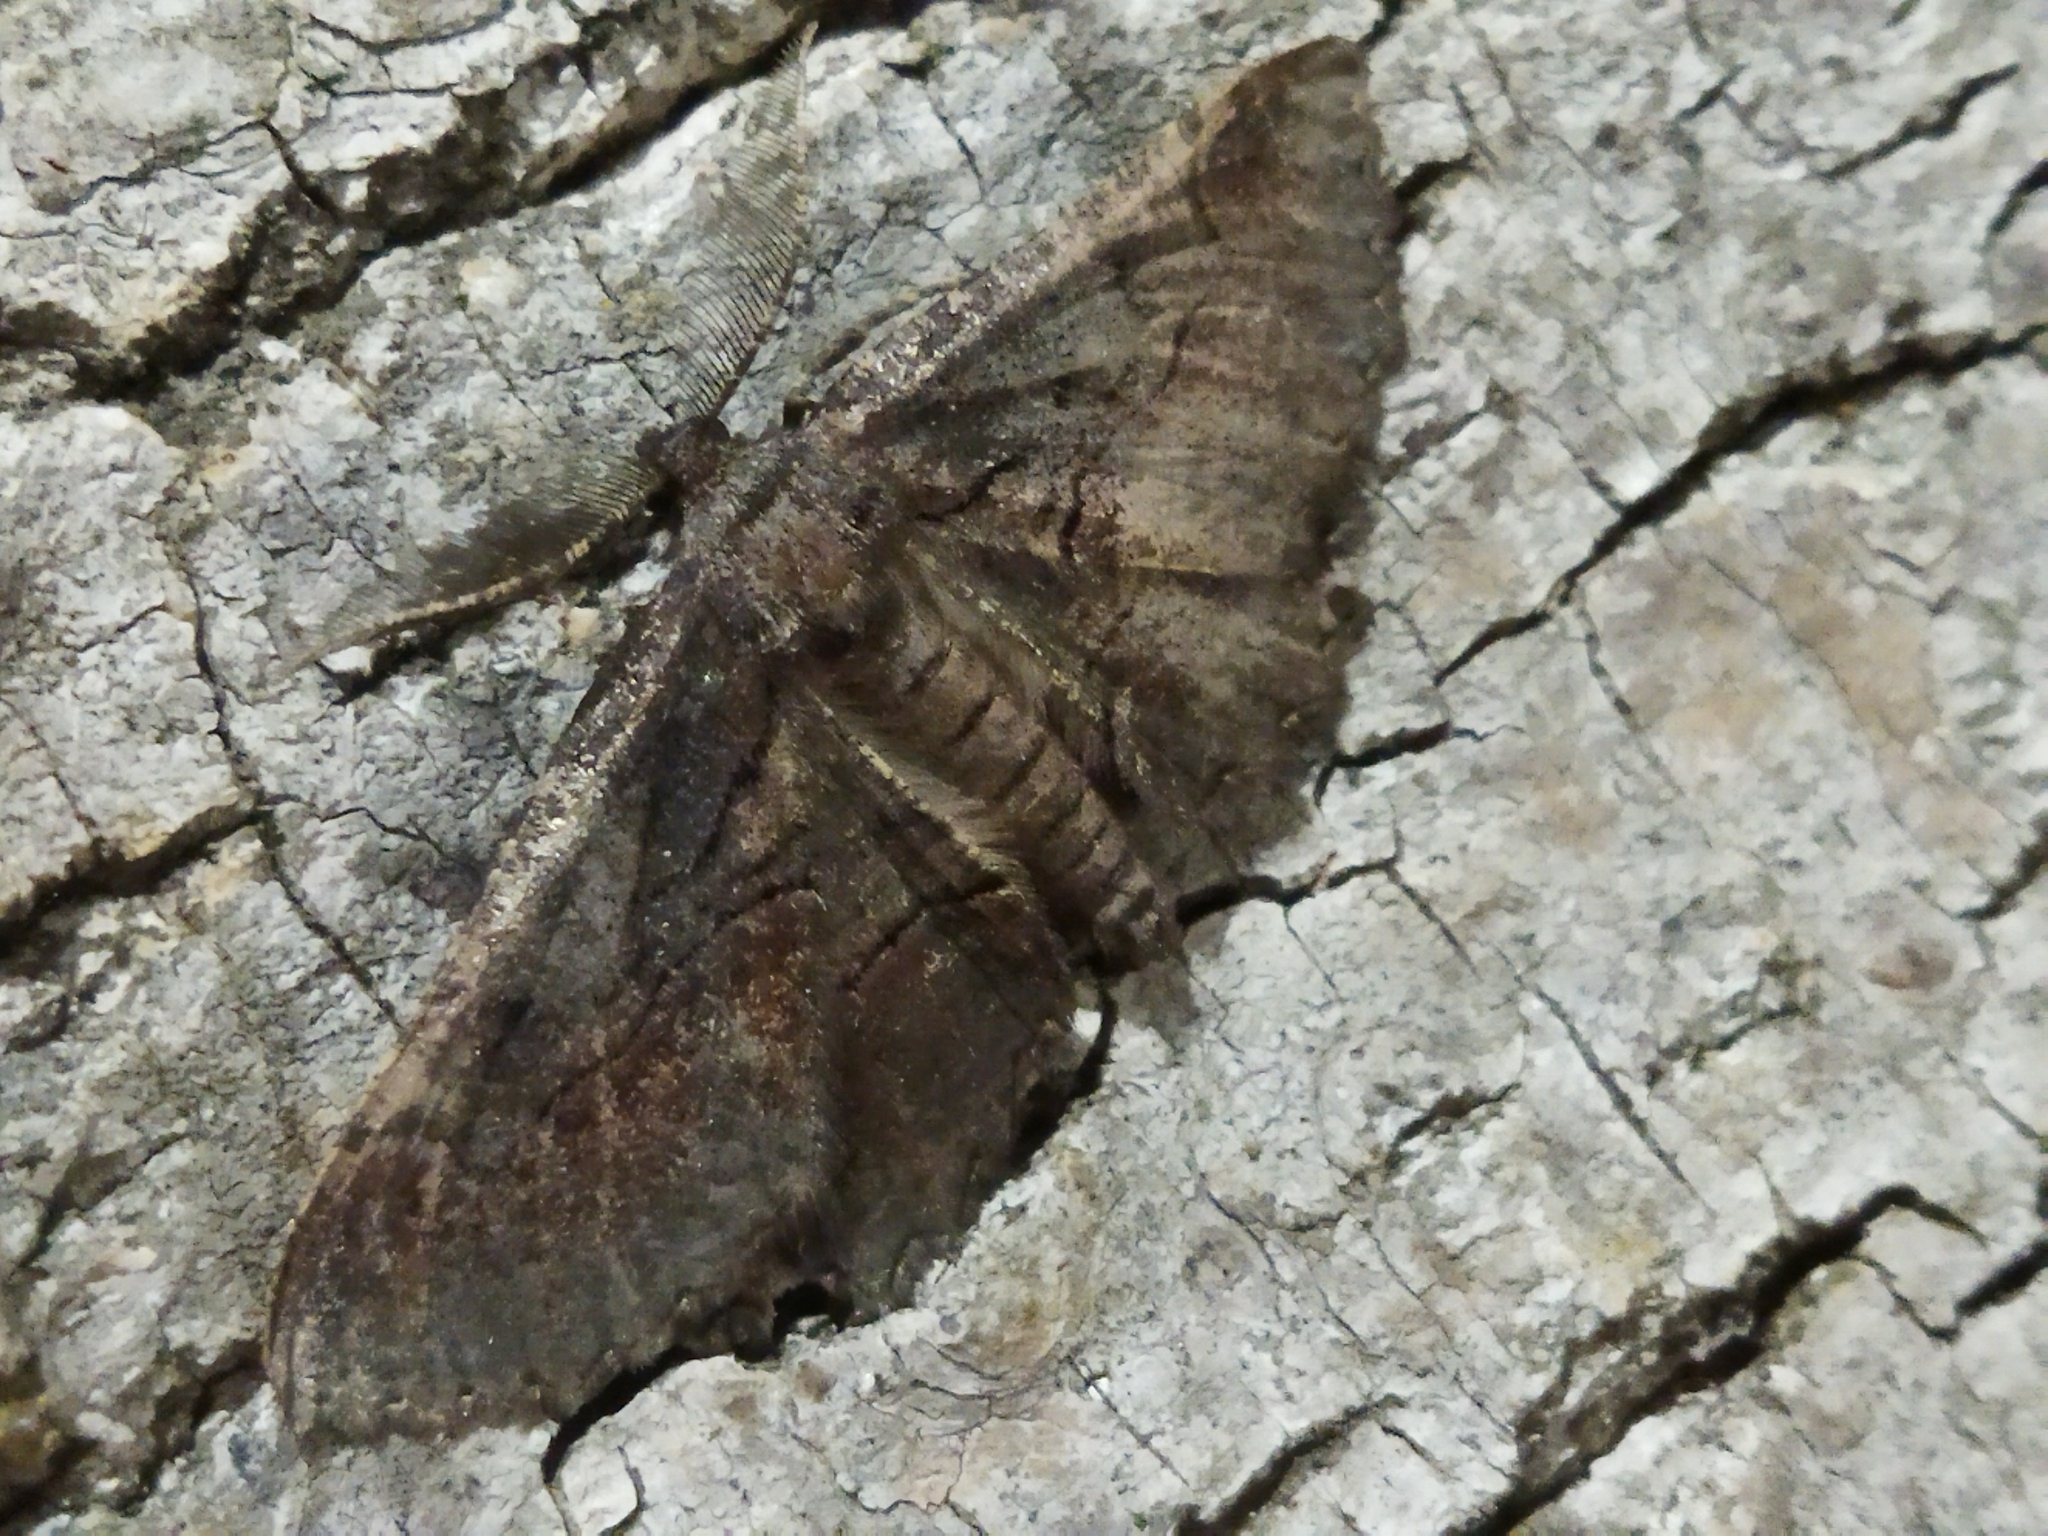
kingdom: Animalia
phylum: Arthropoda
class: Insecta
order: Lepidoptera
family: Geometridae
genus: Nychiodes
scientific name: Nychiodes waltheri
